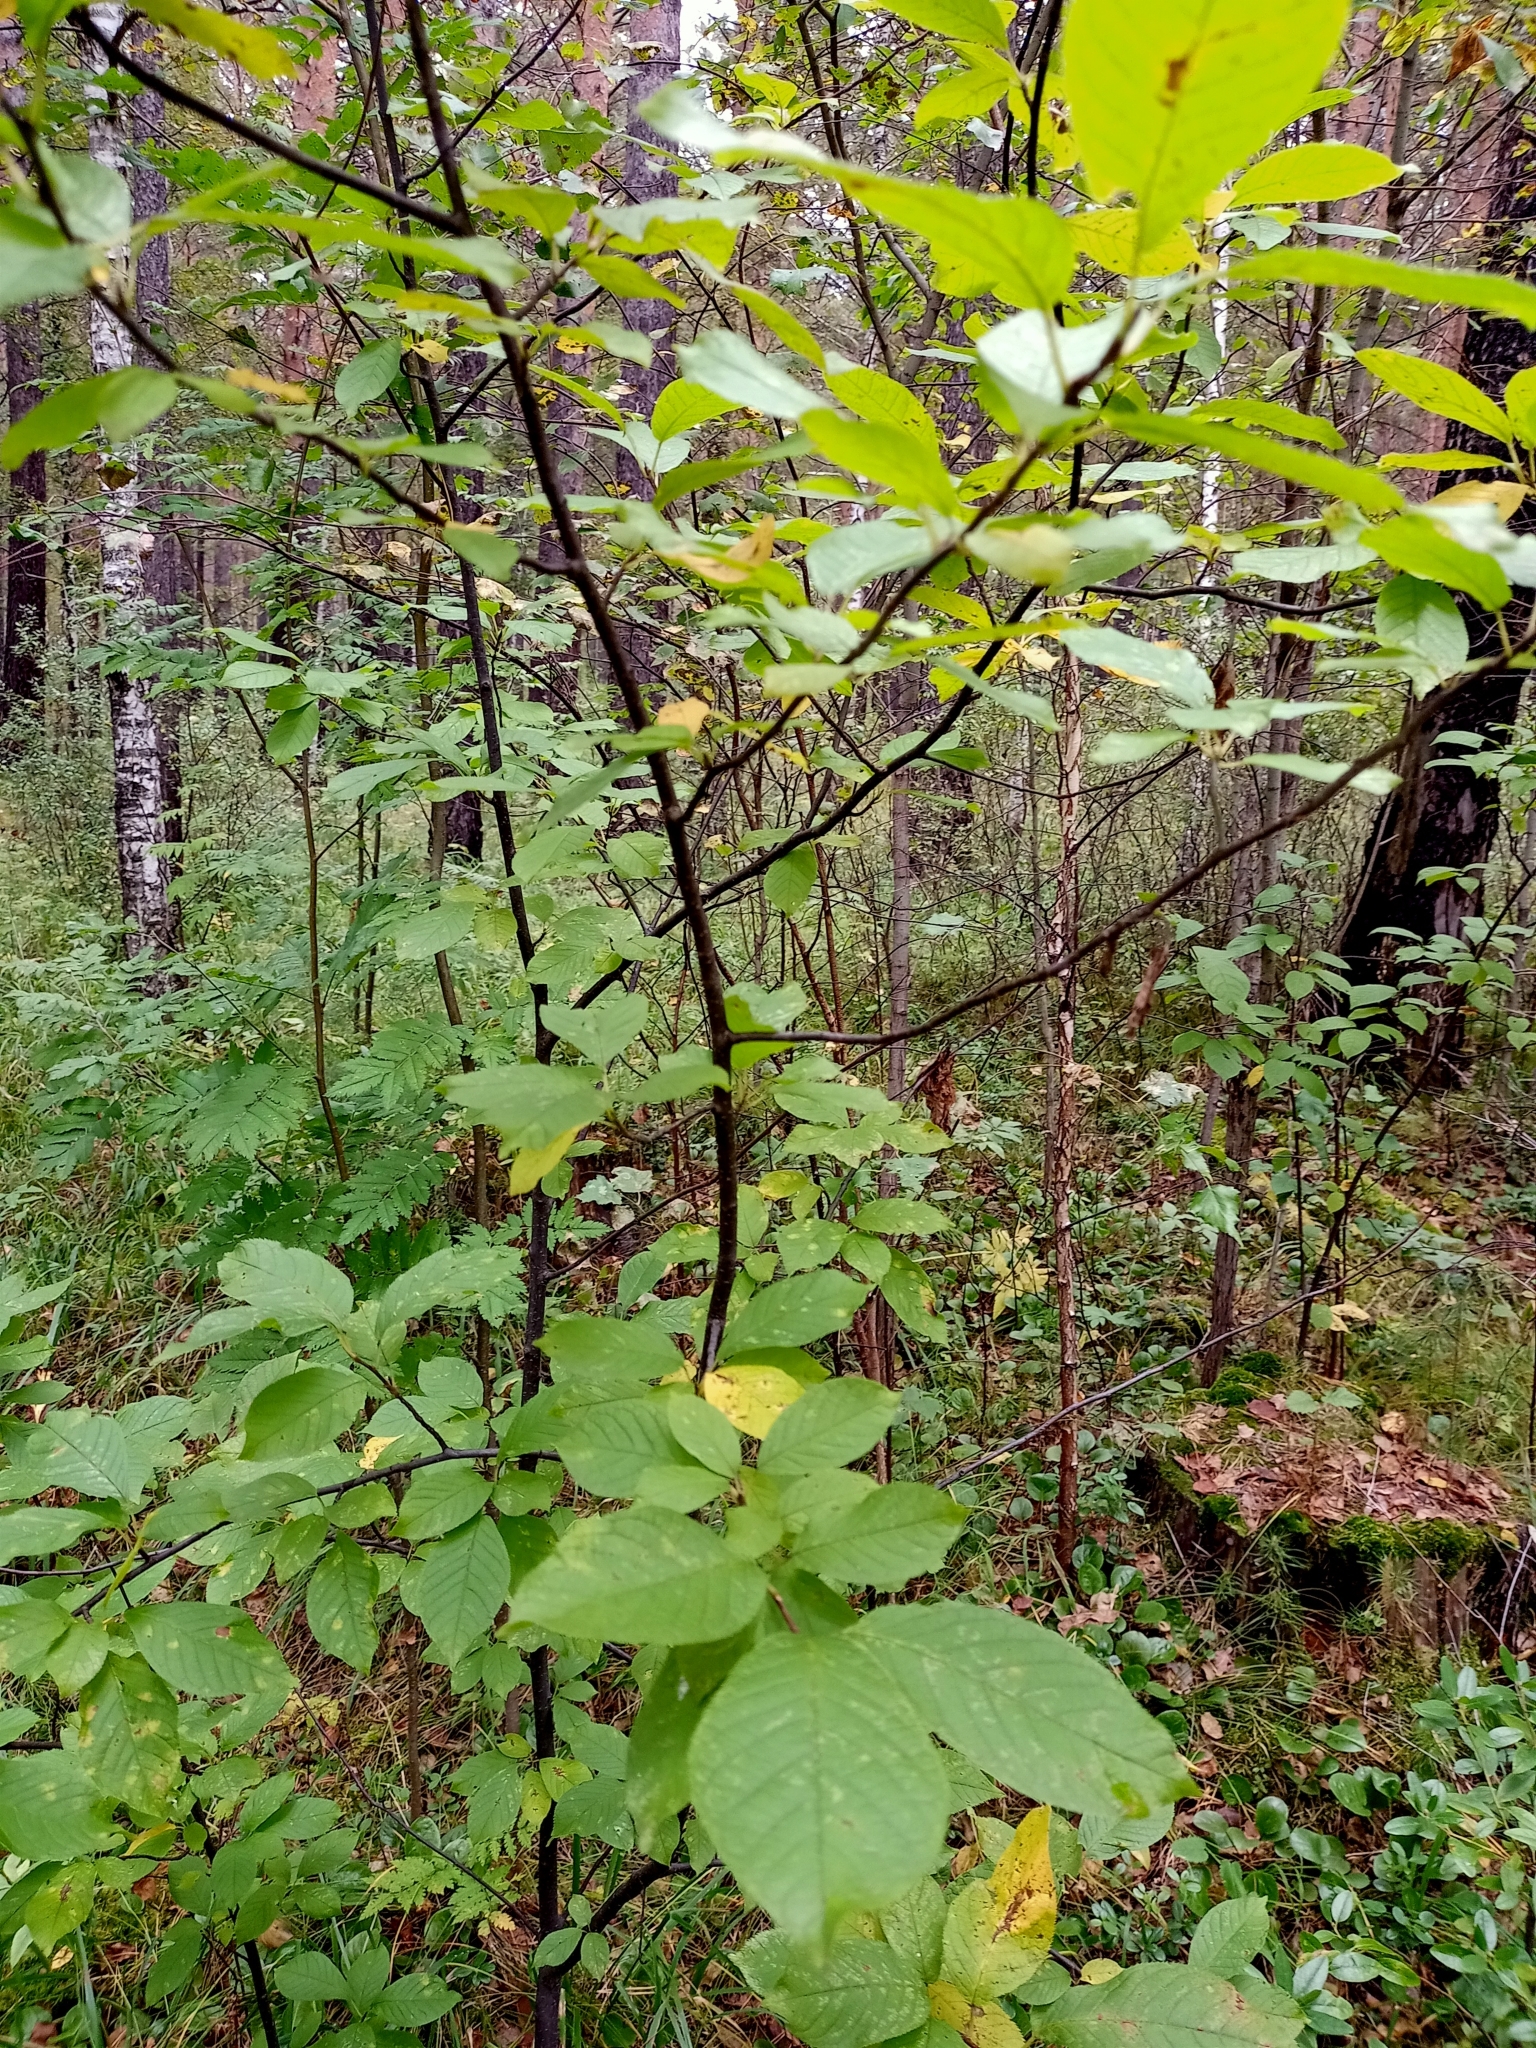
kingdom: Plantae
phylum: Tracheophyta
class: Magnoliopsida
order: Rosales
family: Rosaceae
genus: Prunus
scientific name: Prunus padus
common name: Bird cherry
